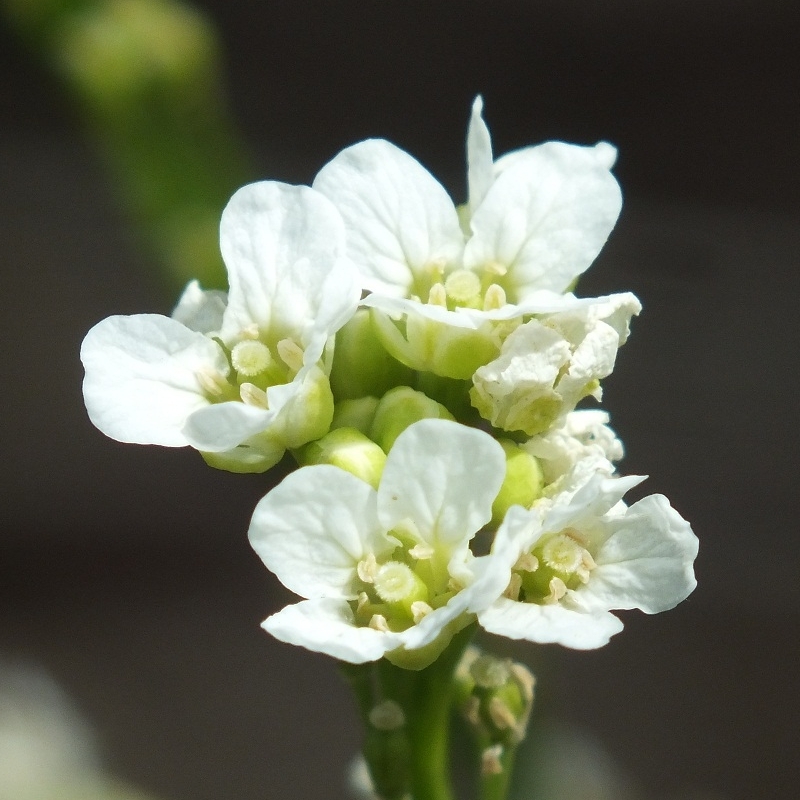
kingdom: Plantae
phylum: Tracheophyta
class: Magnoliopsida
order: Brassicales
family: Brassicaceae
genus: Armoracia
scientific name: Armoracia rusticana
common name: Horseradish
